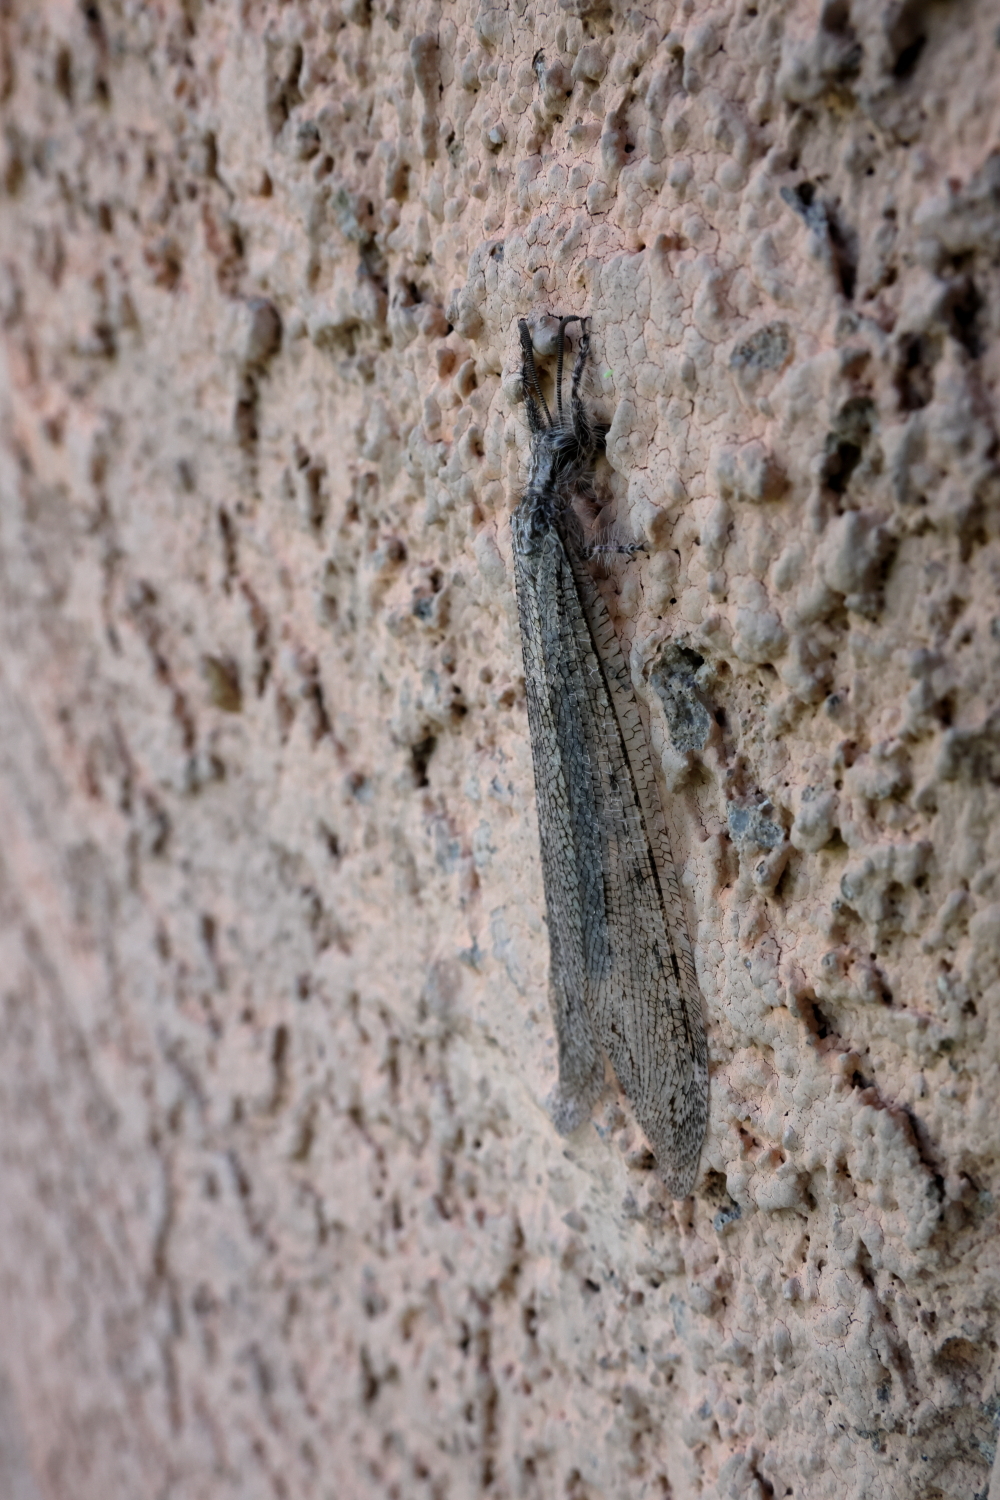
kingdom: Animalia
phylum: Arthropoda
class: Insecta
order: Neuroptera
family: Myrmeleontidae
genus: Vella
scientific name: Vella fallax
